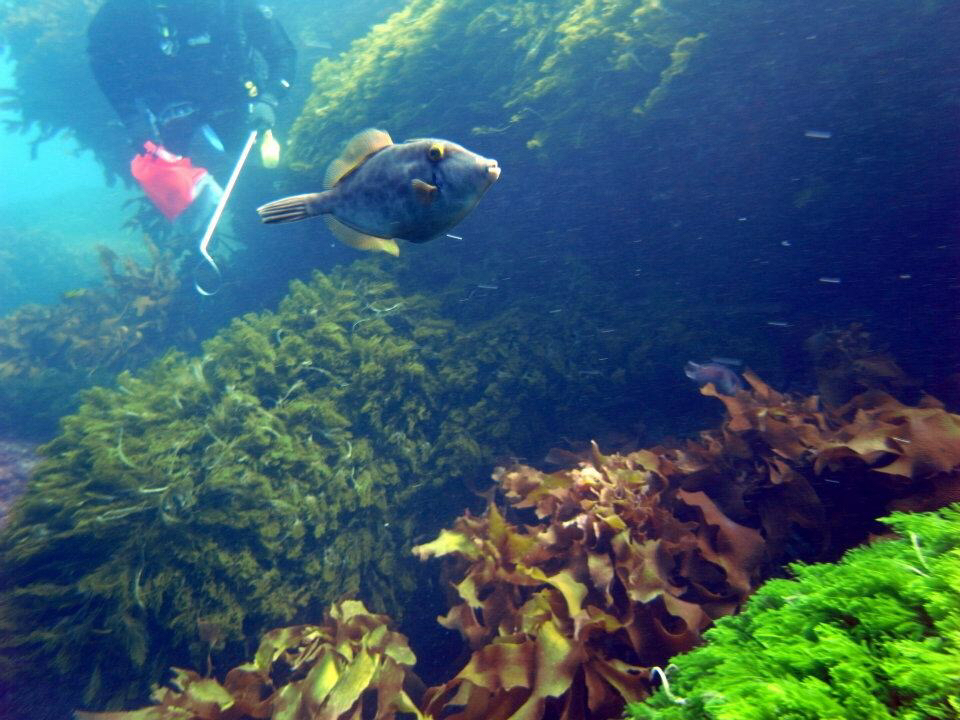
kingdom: Animalia
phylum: Chordata
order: Tetraodontiformes
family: Monacanthidae
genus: Meuschenia
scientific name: Meuschenia scaber
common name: Cosmopolitan leatherjacket
